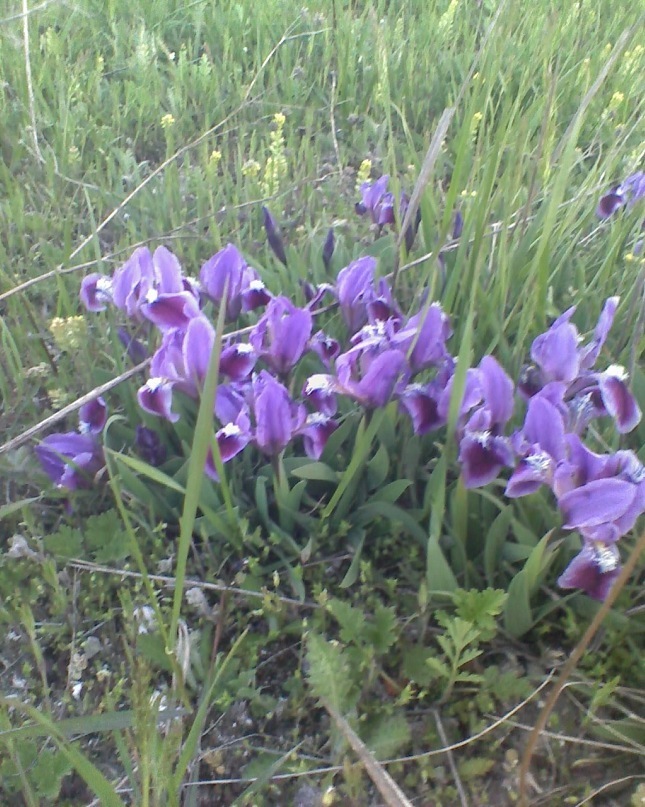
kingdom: Plantae
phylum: Tracheophyta
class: Liliopsida
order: Asparagales
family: Iridaceae
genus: Iris
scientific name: Iris pumila
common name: Dwarf iris
